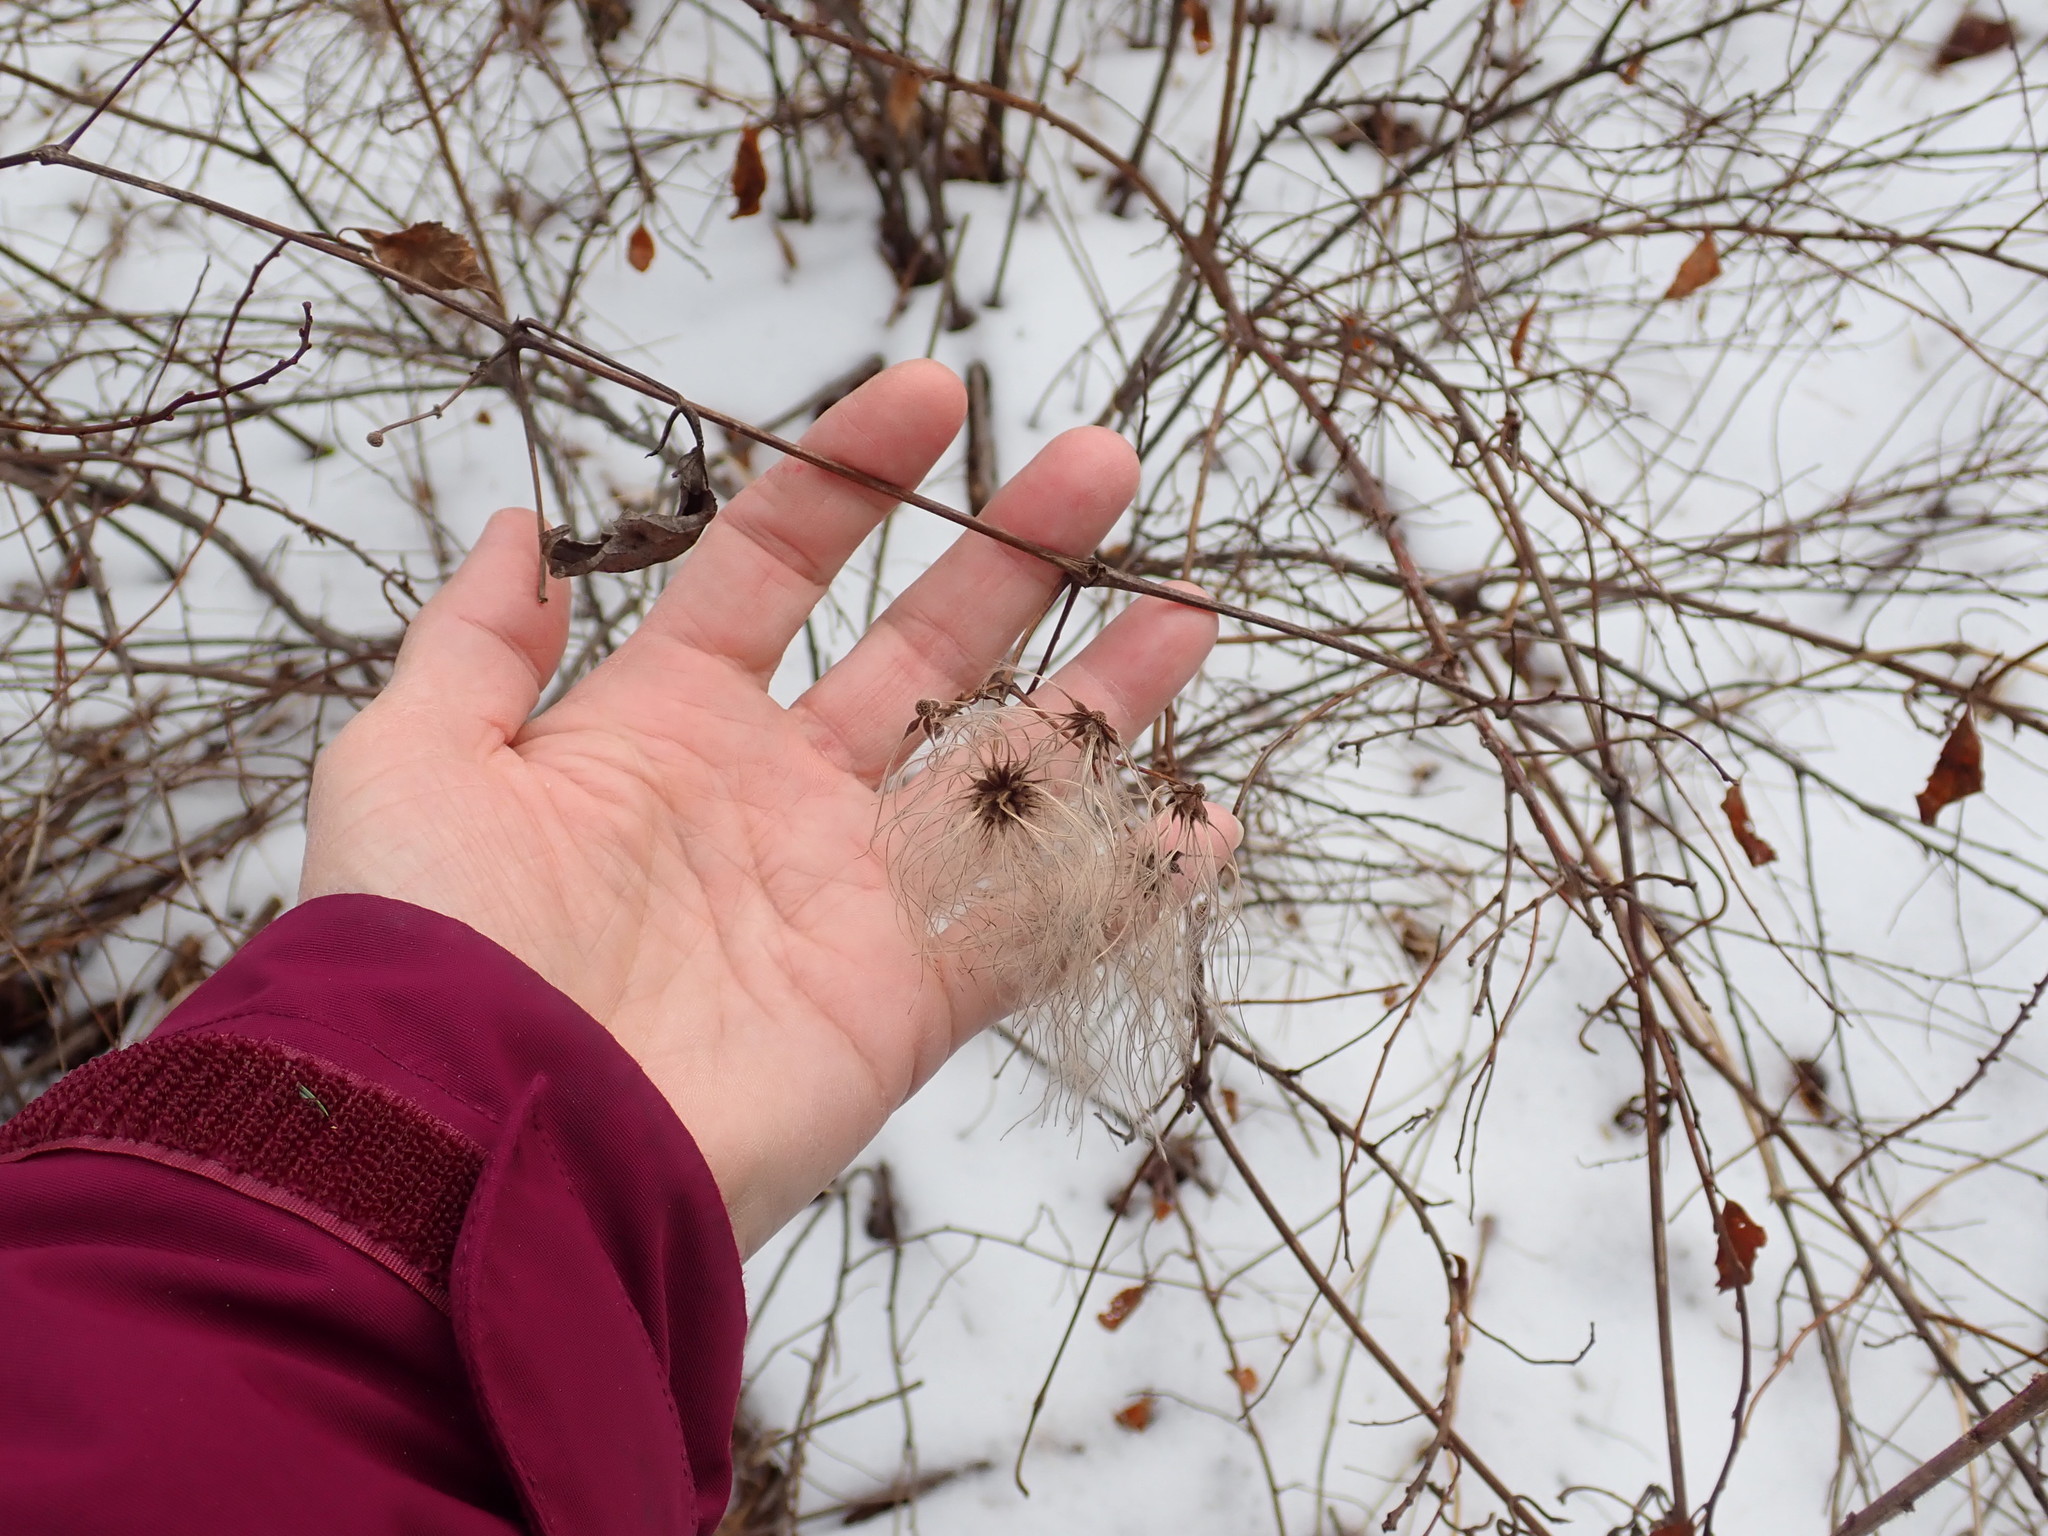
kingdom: Plantae
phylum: Tracheophyta
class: Magnoliopsida
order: Ranunculales
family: Ranunculaceae
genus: Clematis
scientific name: Clematis virginiana
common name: Virgin's-bower
